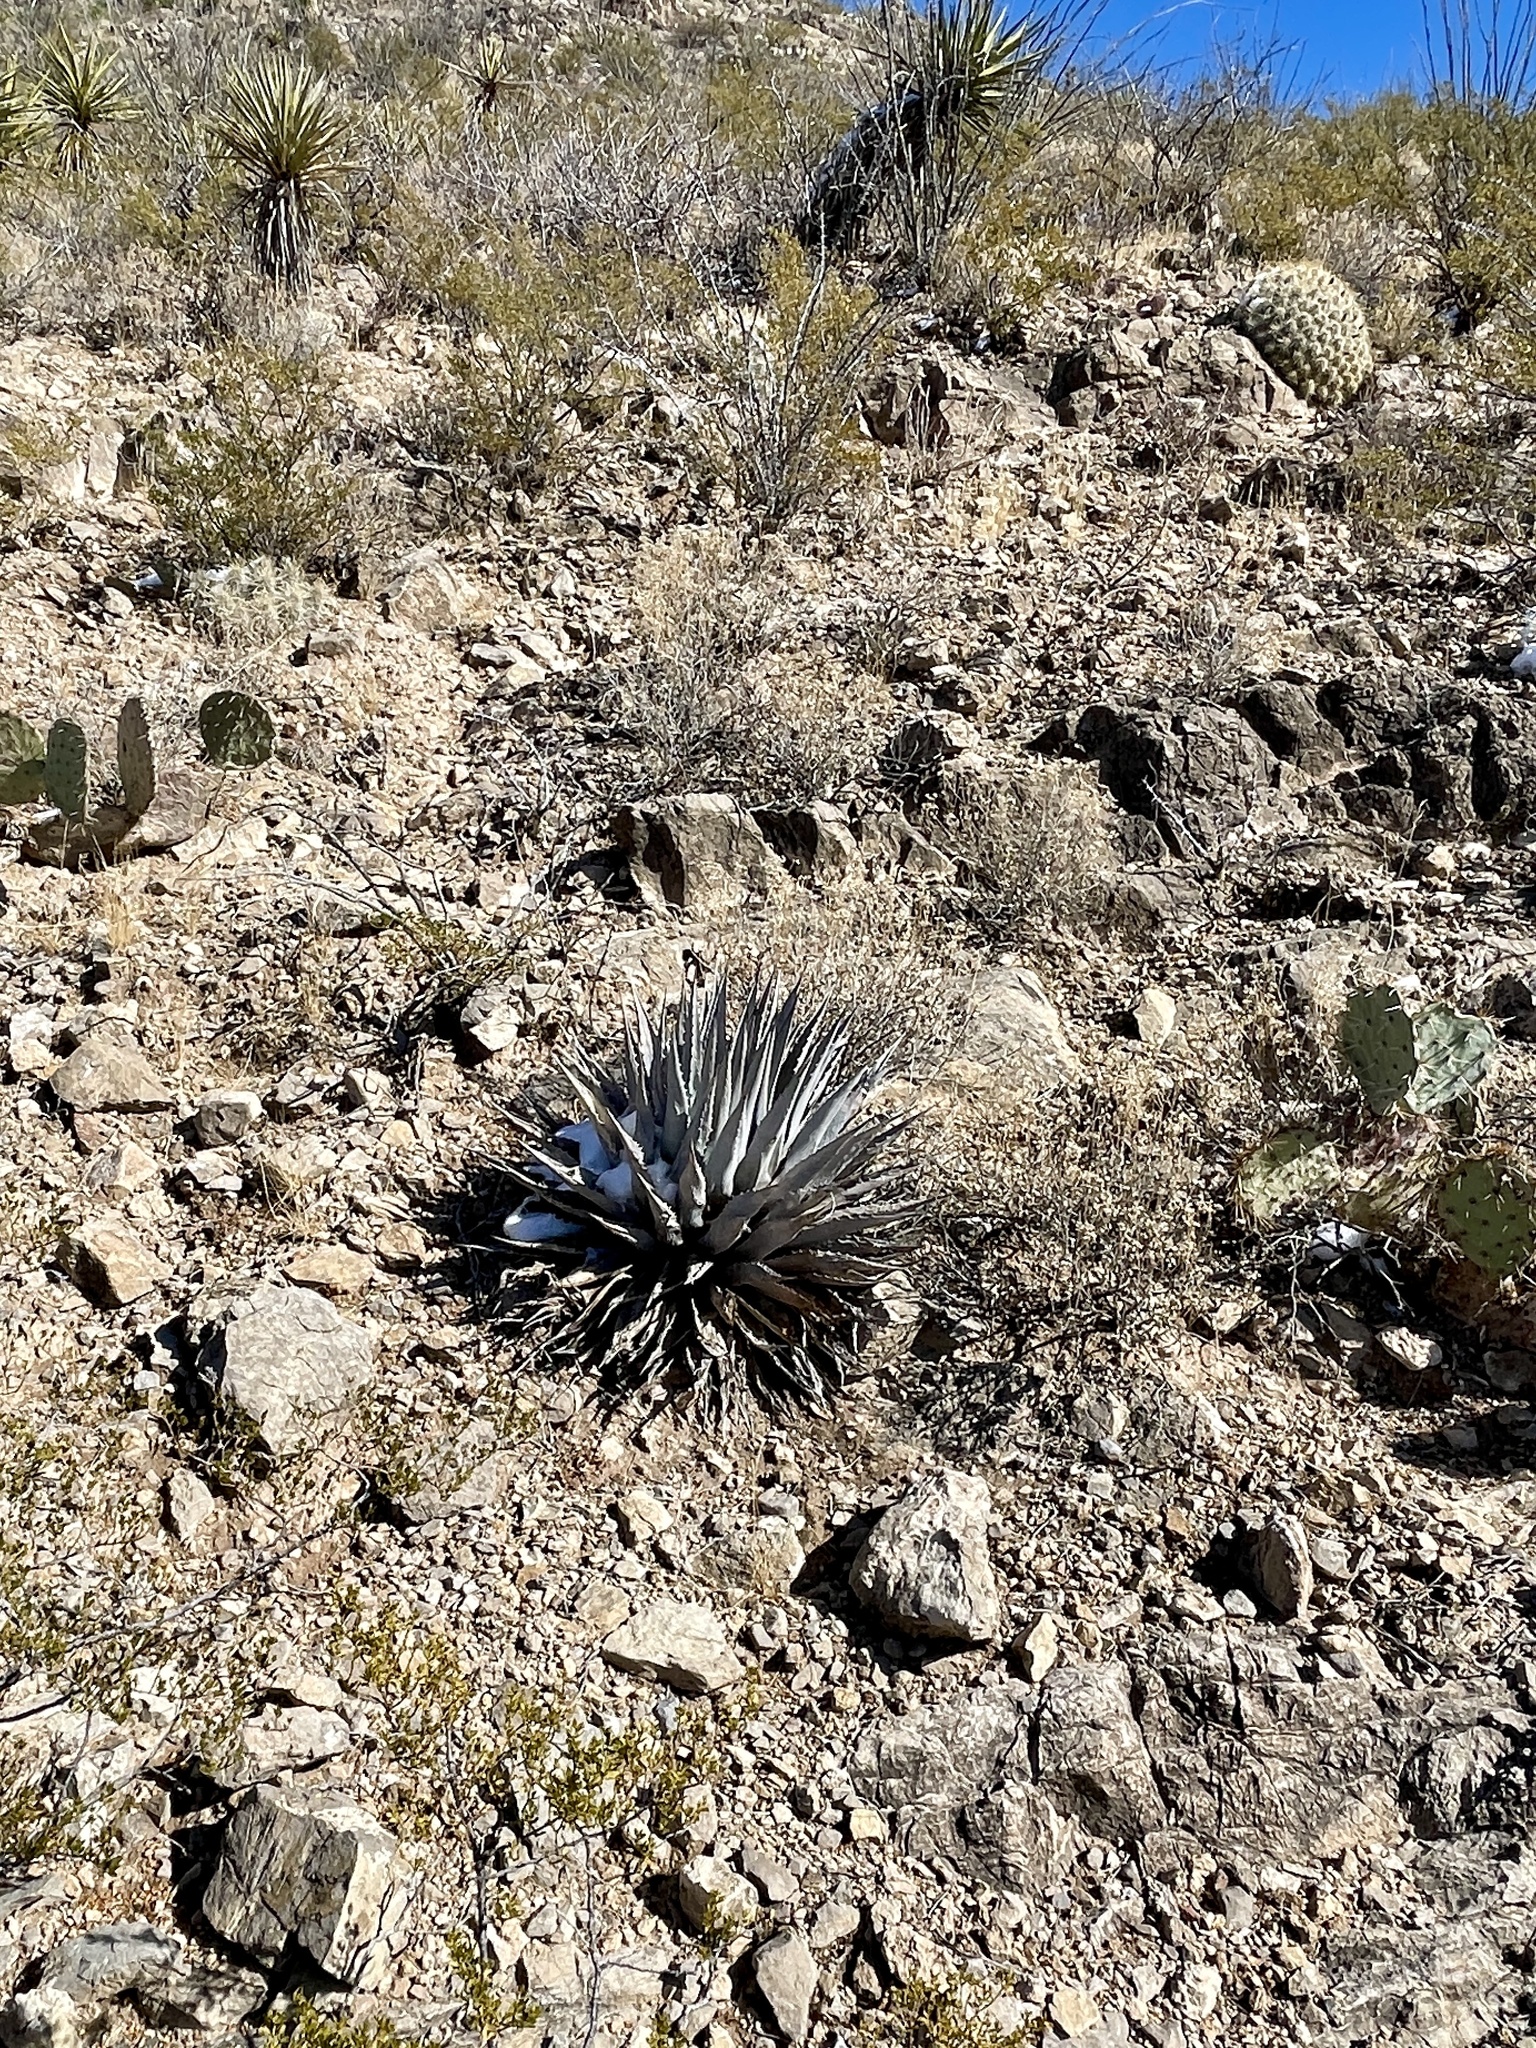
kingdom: Plantae
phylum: Tracheophyta
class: Liliopsida
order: Asparagales
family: Asparagaceae
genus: Agave
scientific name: Agave parryi
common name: Parry's agave
